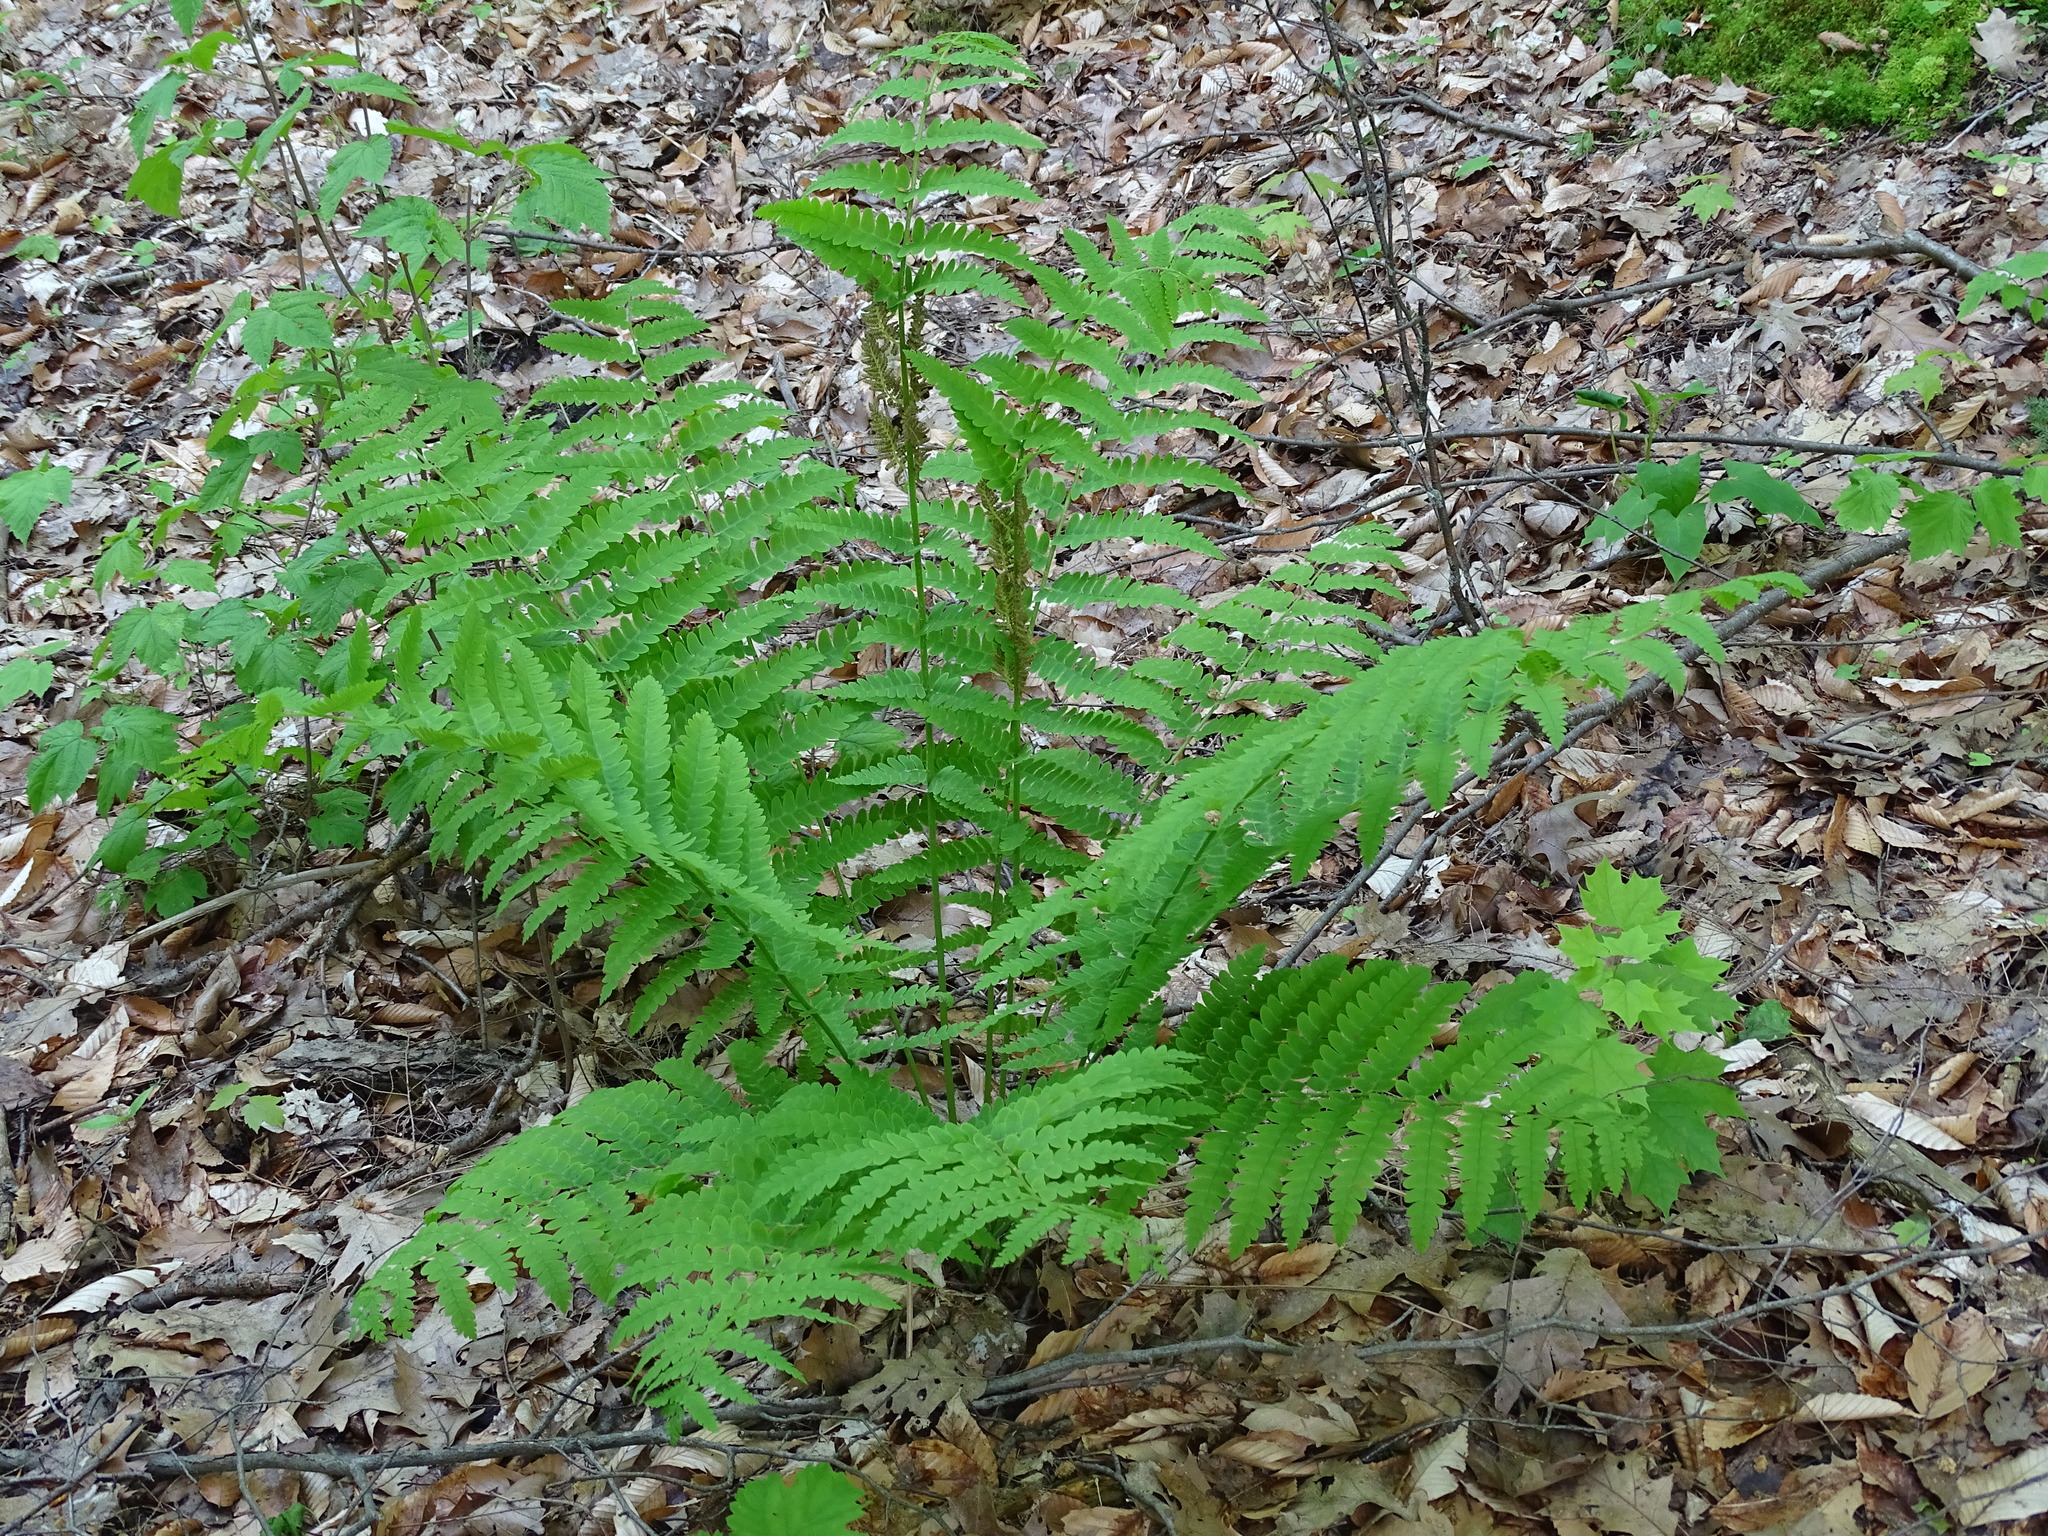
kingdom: Plantae
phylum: Tracheophyta
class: Polypodiopsida
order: Osmundales
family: Osmundaceae
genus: Claytosmunda
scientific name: Claytosmunda claytoniana
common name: Clayton's fern
